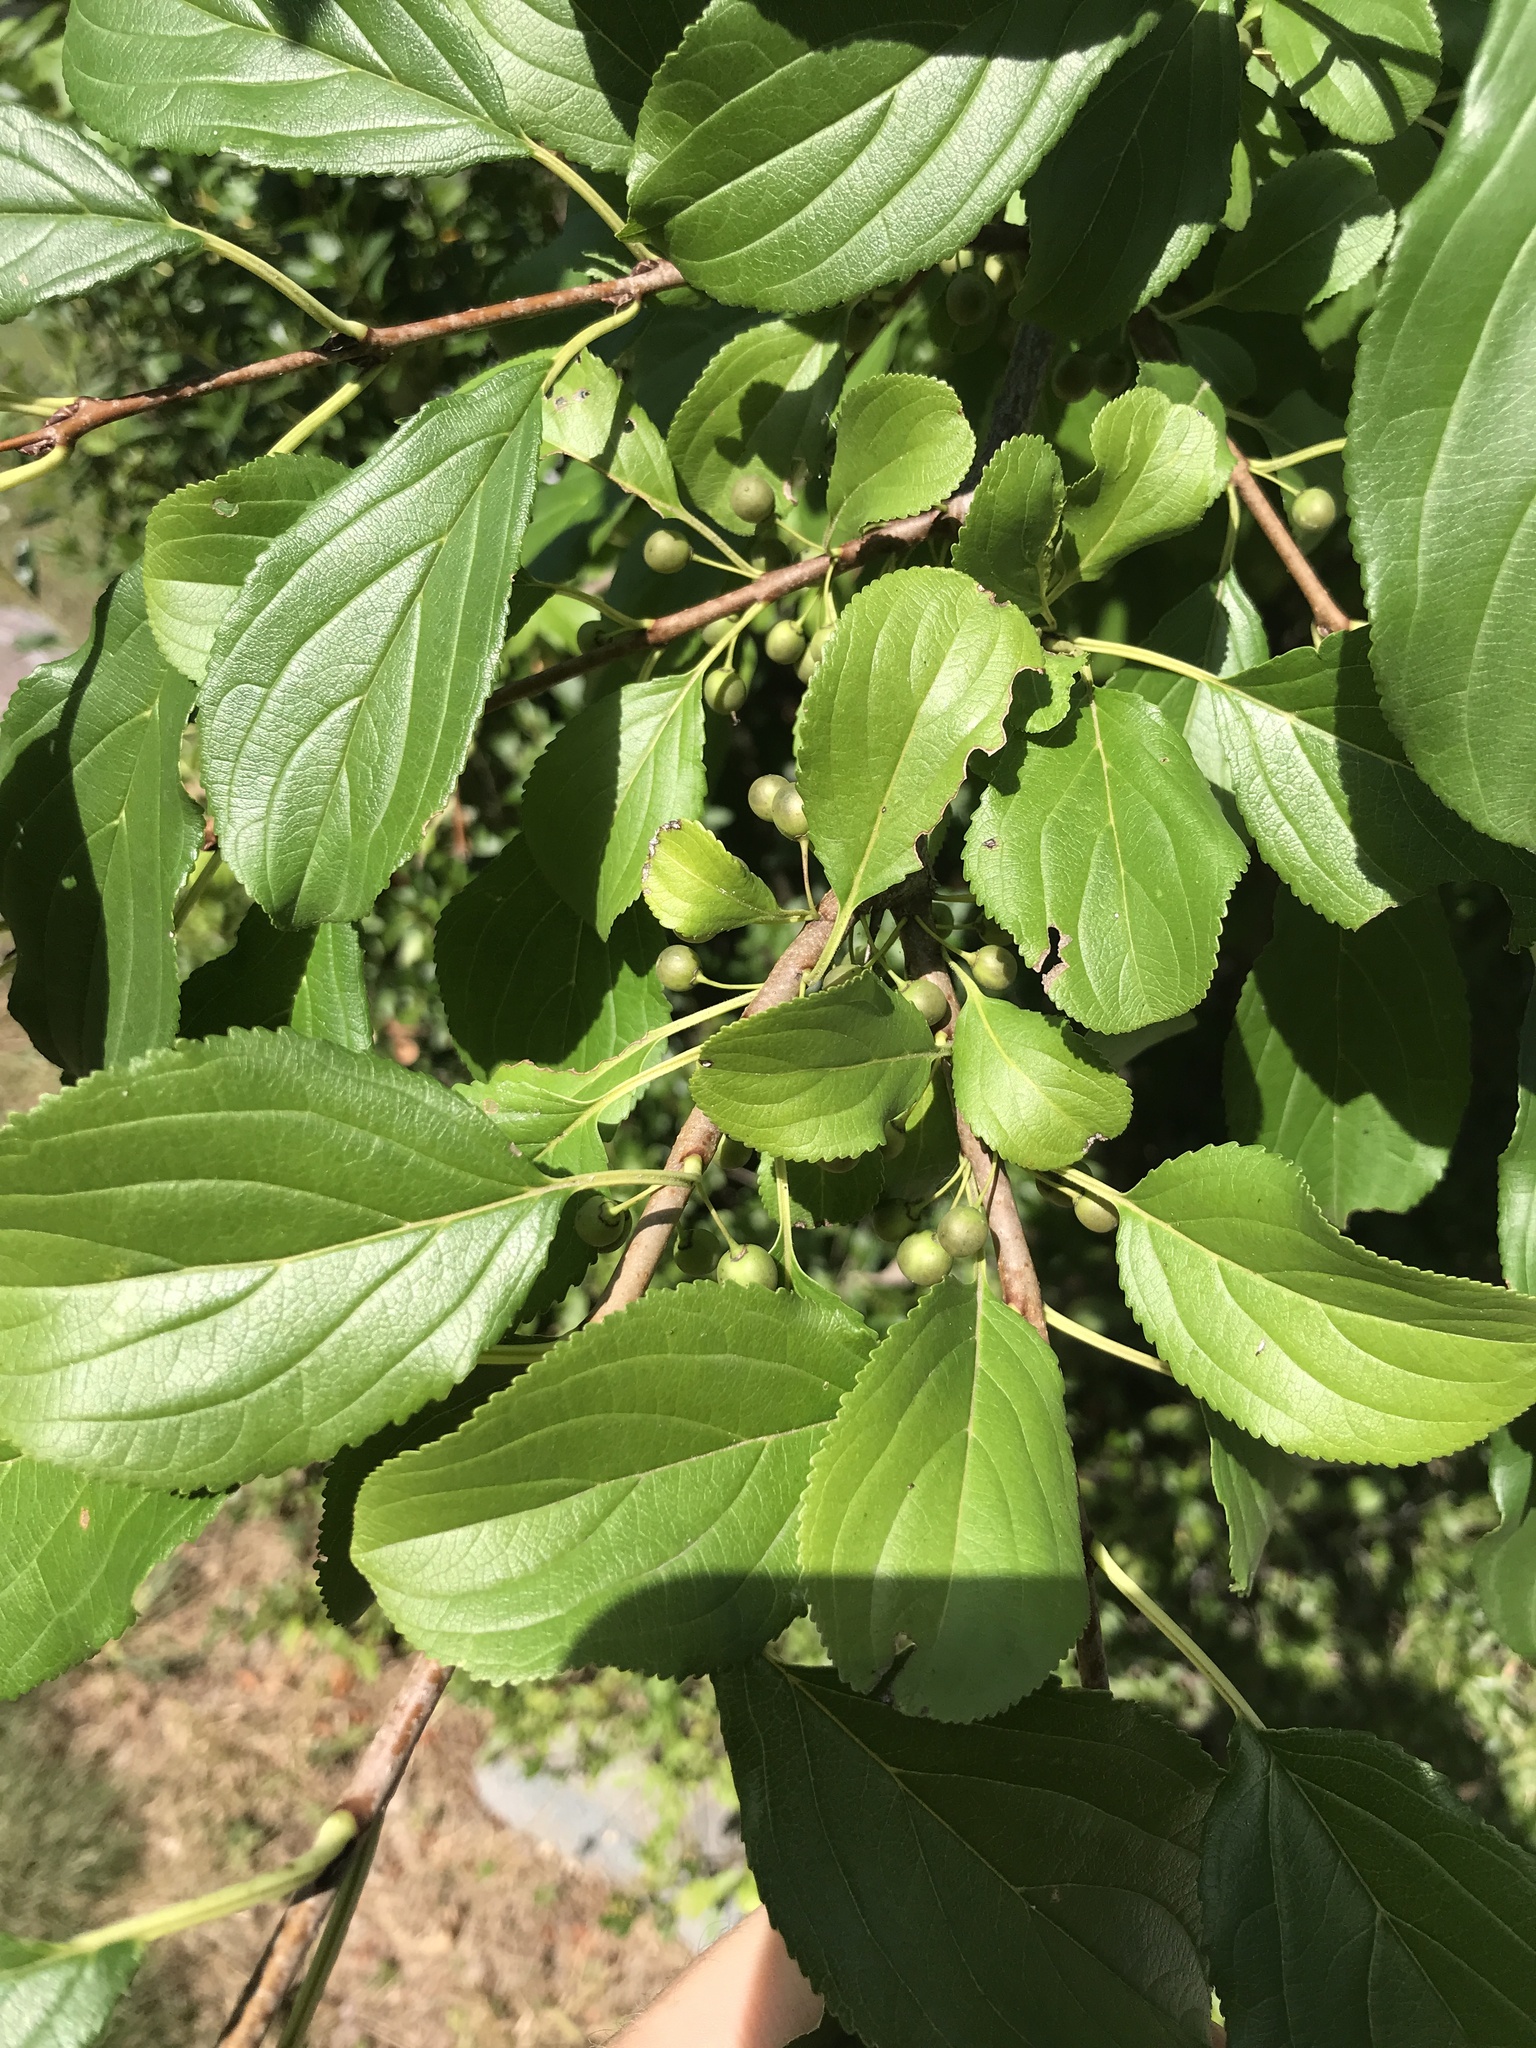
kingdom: Plantae
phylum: Tracheophyta
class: Magnoliopsida
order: Rosales
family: Rhamnaceae
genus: Rhamnus
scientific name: Rhamnus cathartica
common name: Common buckthorn
